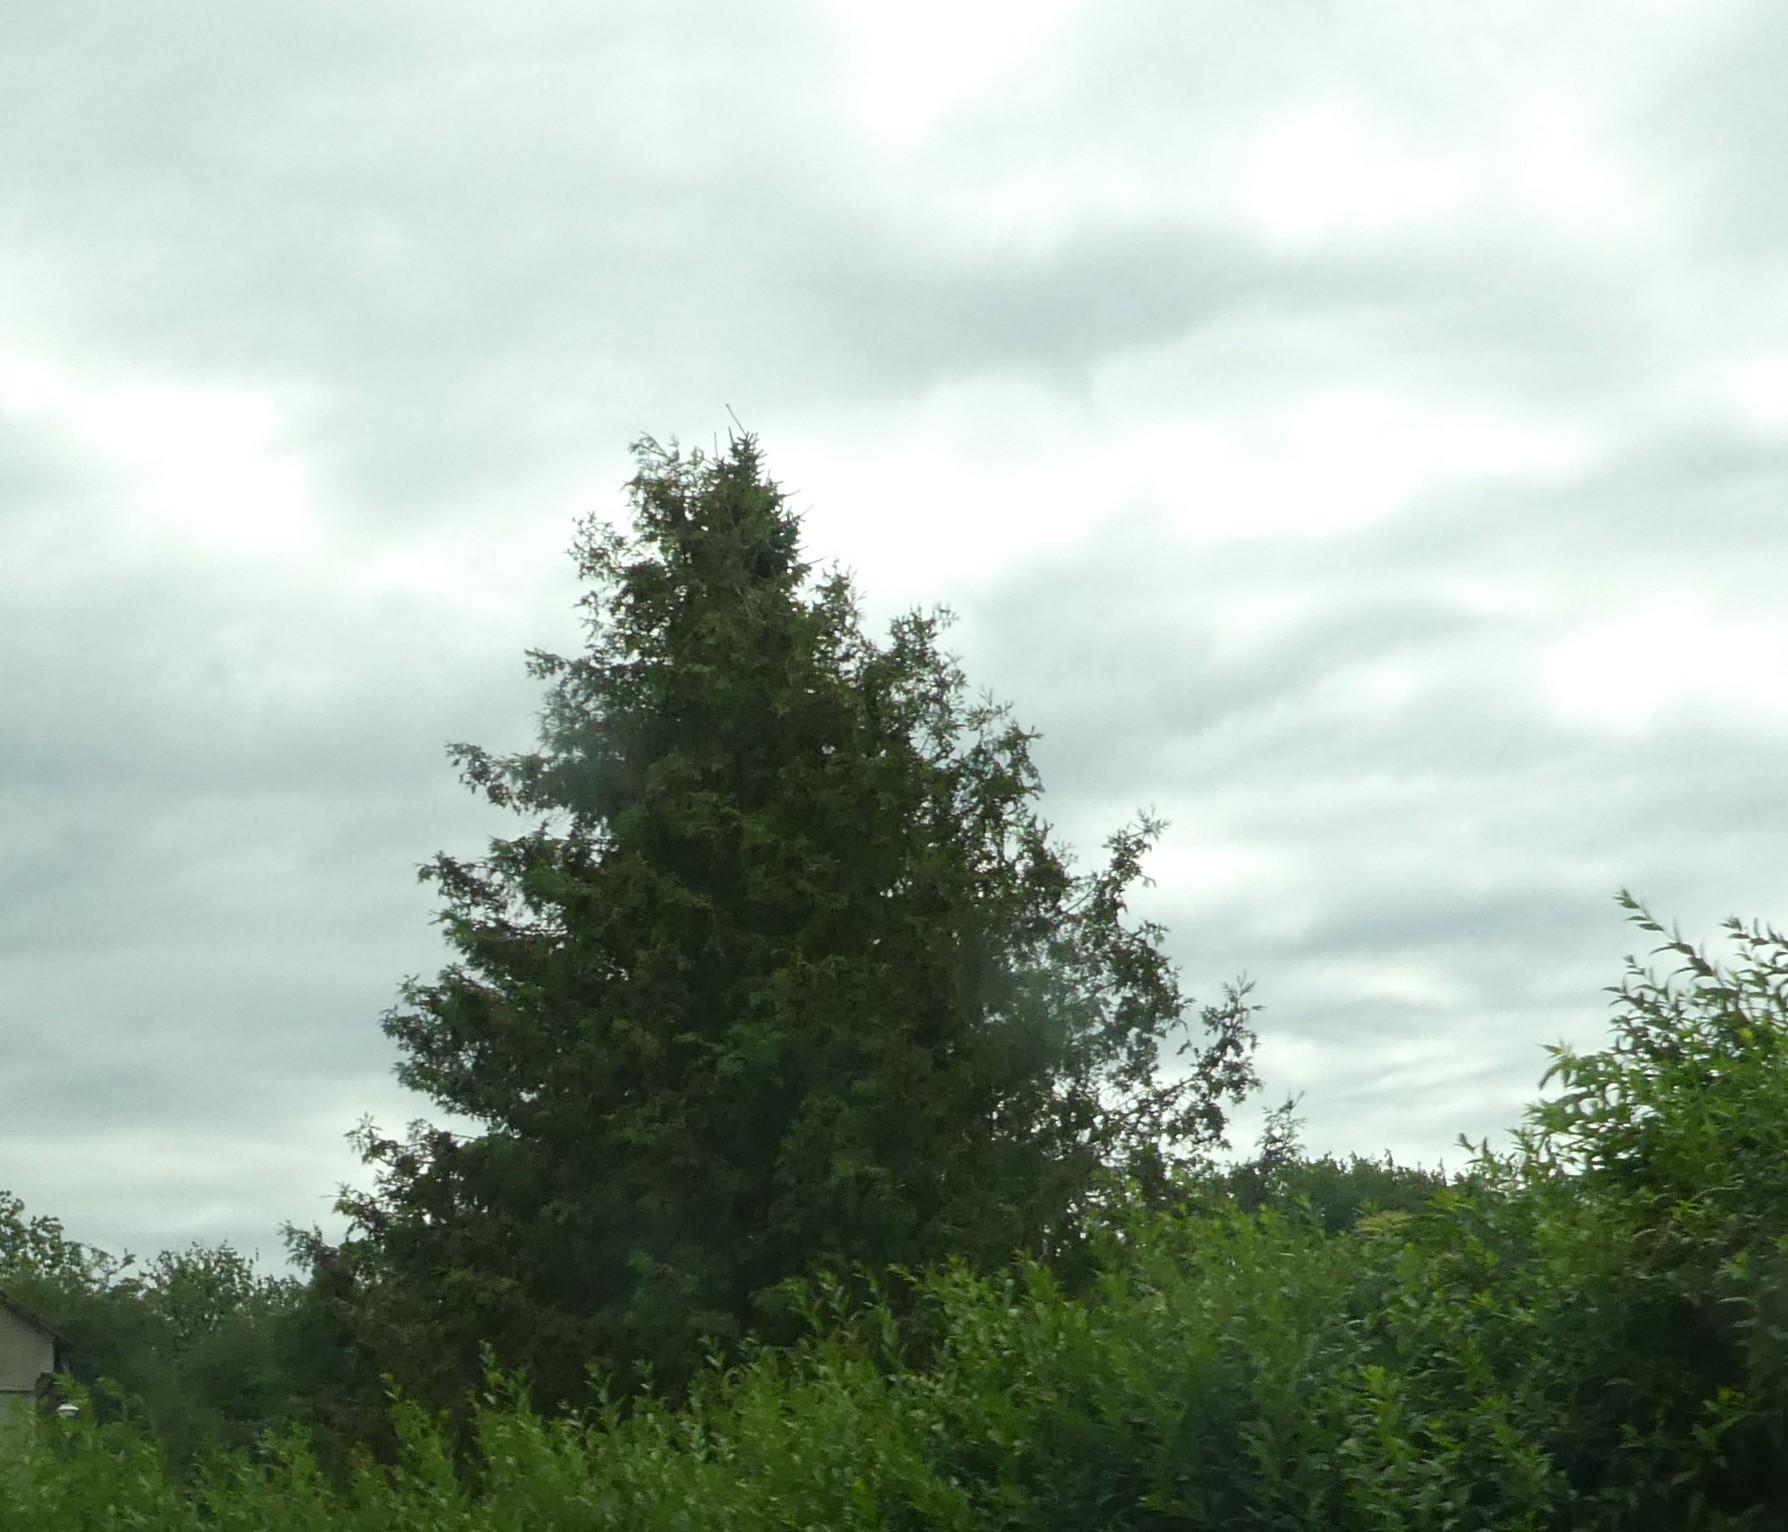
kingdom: Plantae
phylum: Tracheophyta
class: Pinopsida
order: Pinales
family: Pinaceae
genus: Picea
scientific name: Picea abies
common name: Norway spruce
